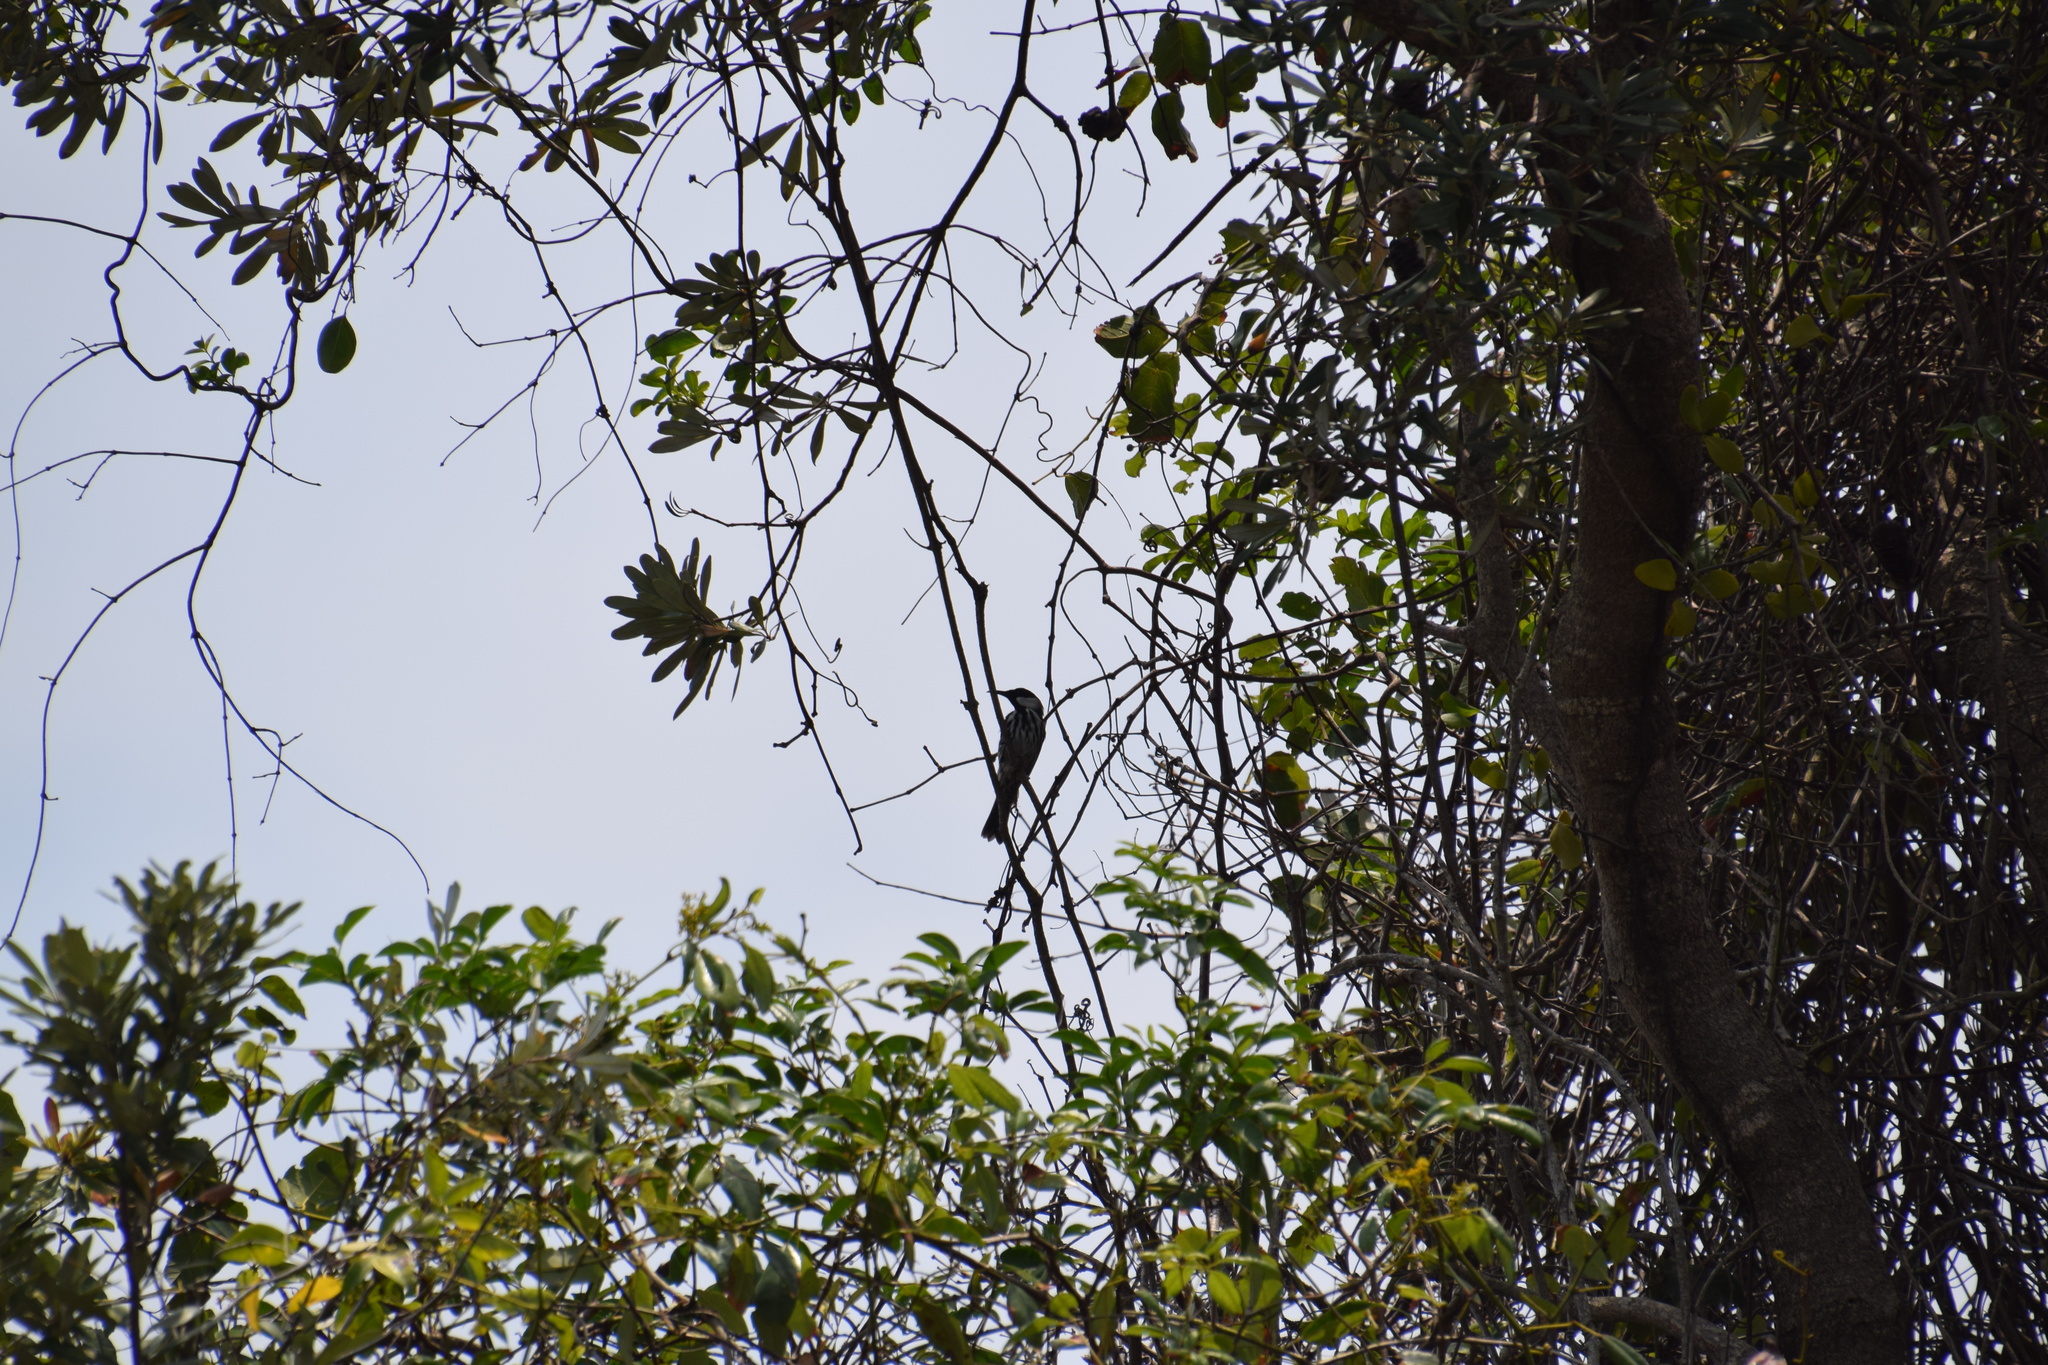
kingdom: Animalia
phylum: Chordata
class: Aves
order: Passeriformes
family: Meliphagidae
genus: Phylidonyris
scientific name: Phylidonyris niger
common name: White-cheeked honeyeater
